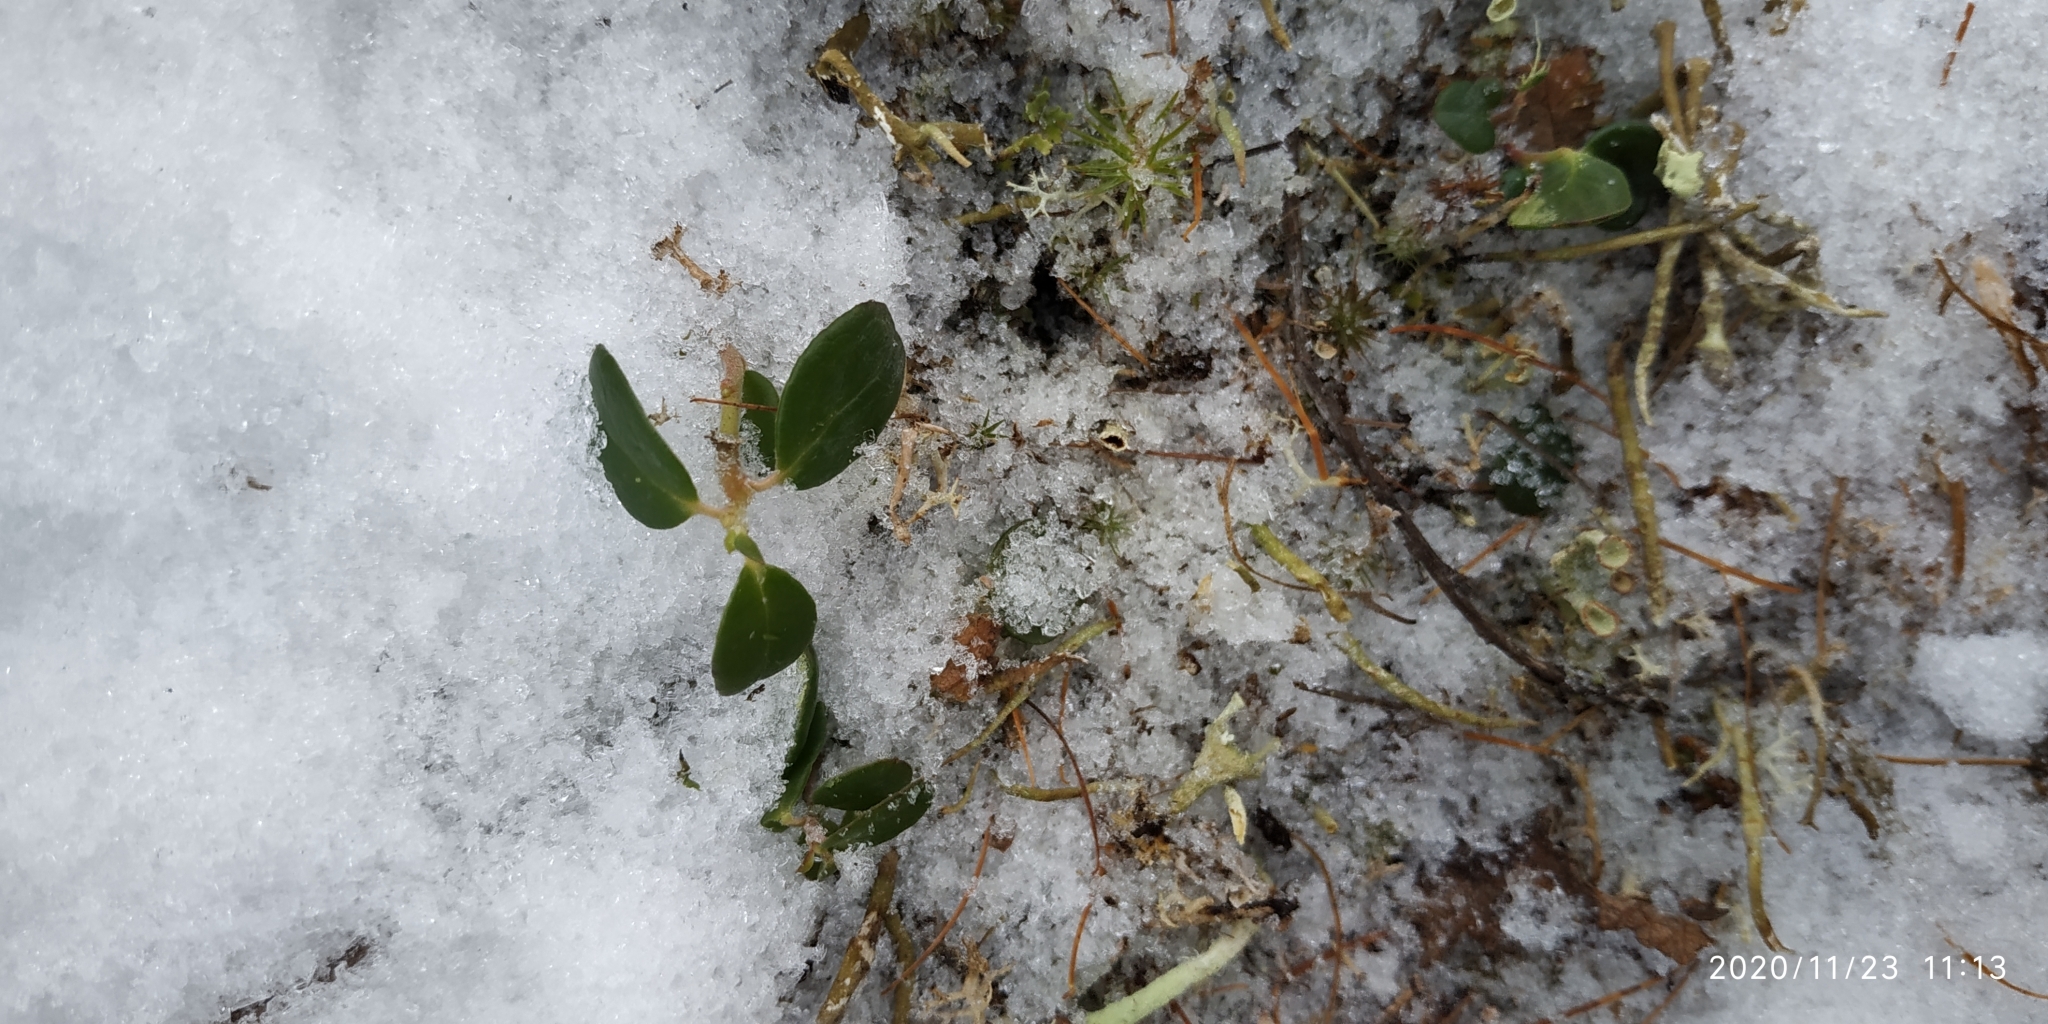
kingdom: Plantae
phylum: Tracheophyta
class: Magnoliopsida
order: Ericales
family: Ericaceae
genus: Vaccinium
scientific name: Vaccinium vitis-idaea
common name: Cowberry
